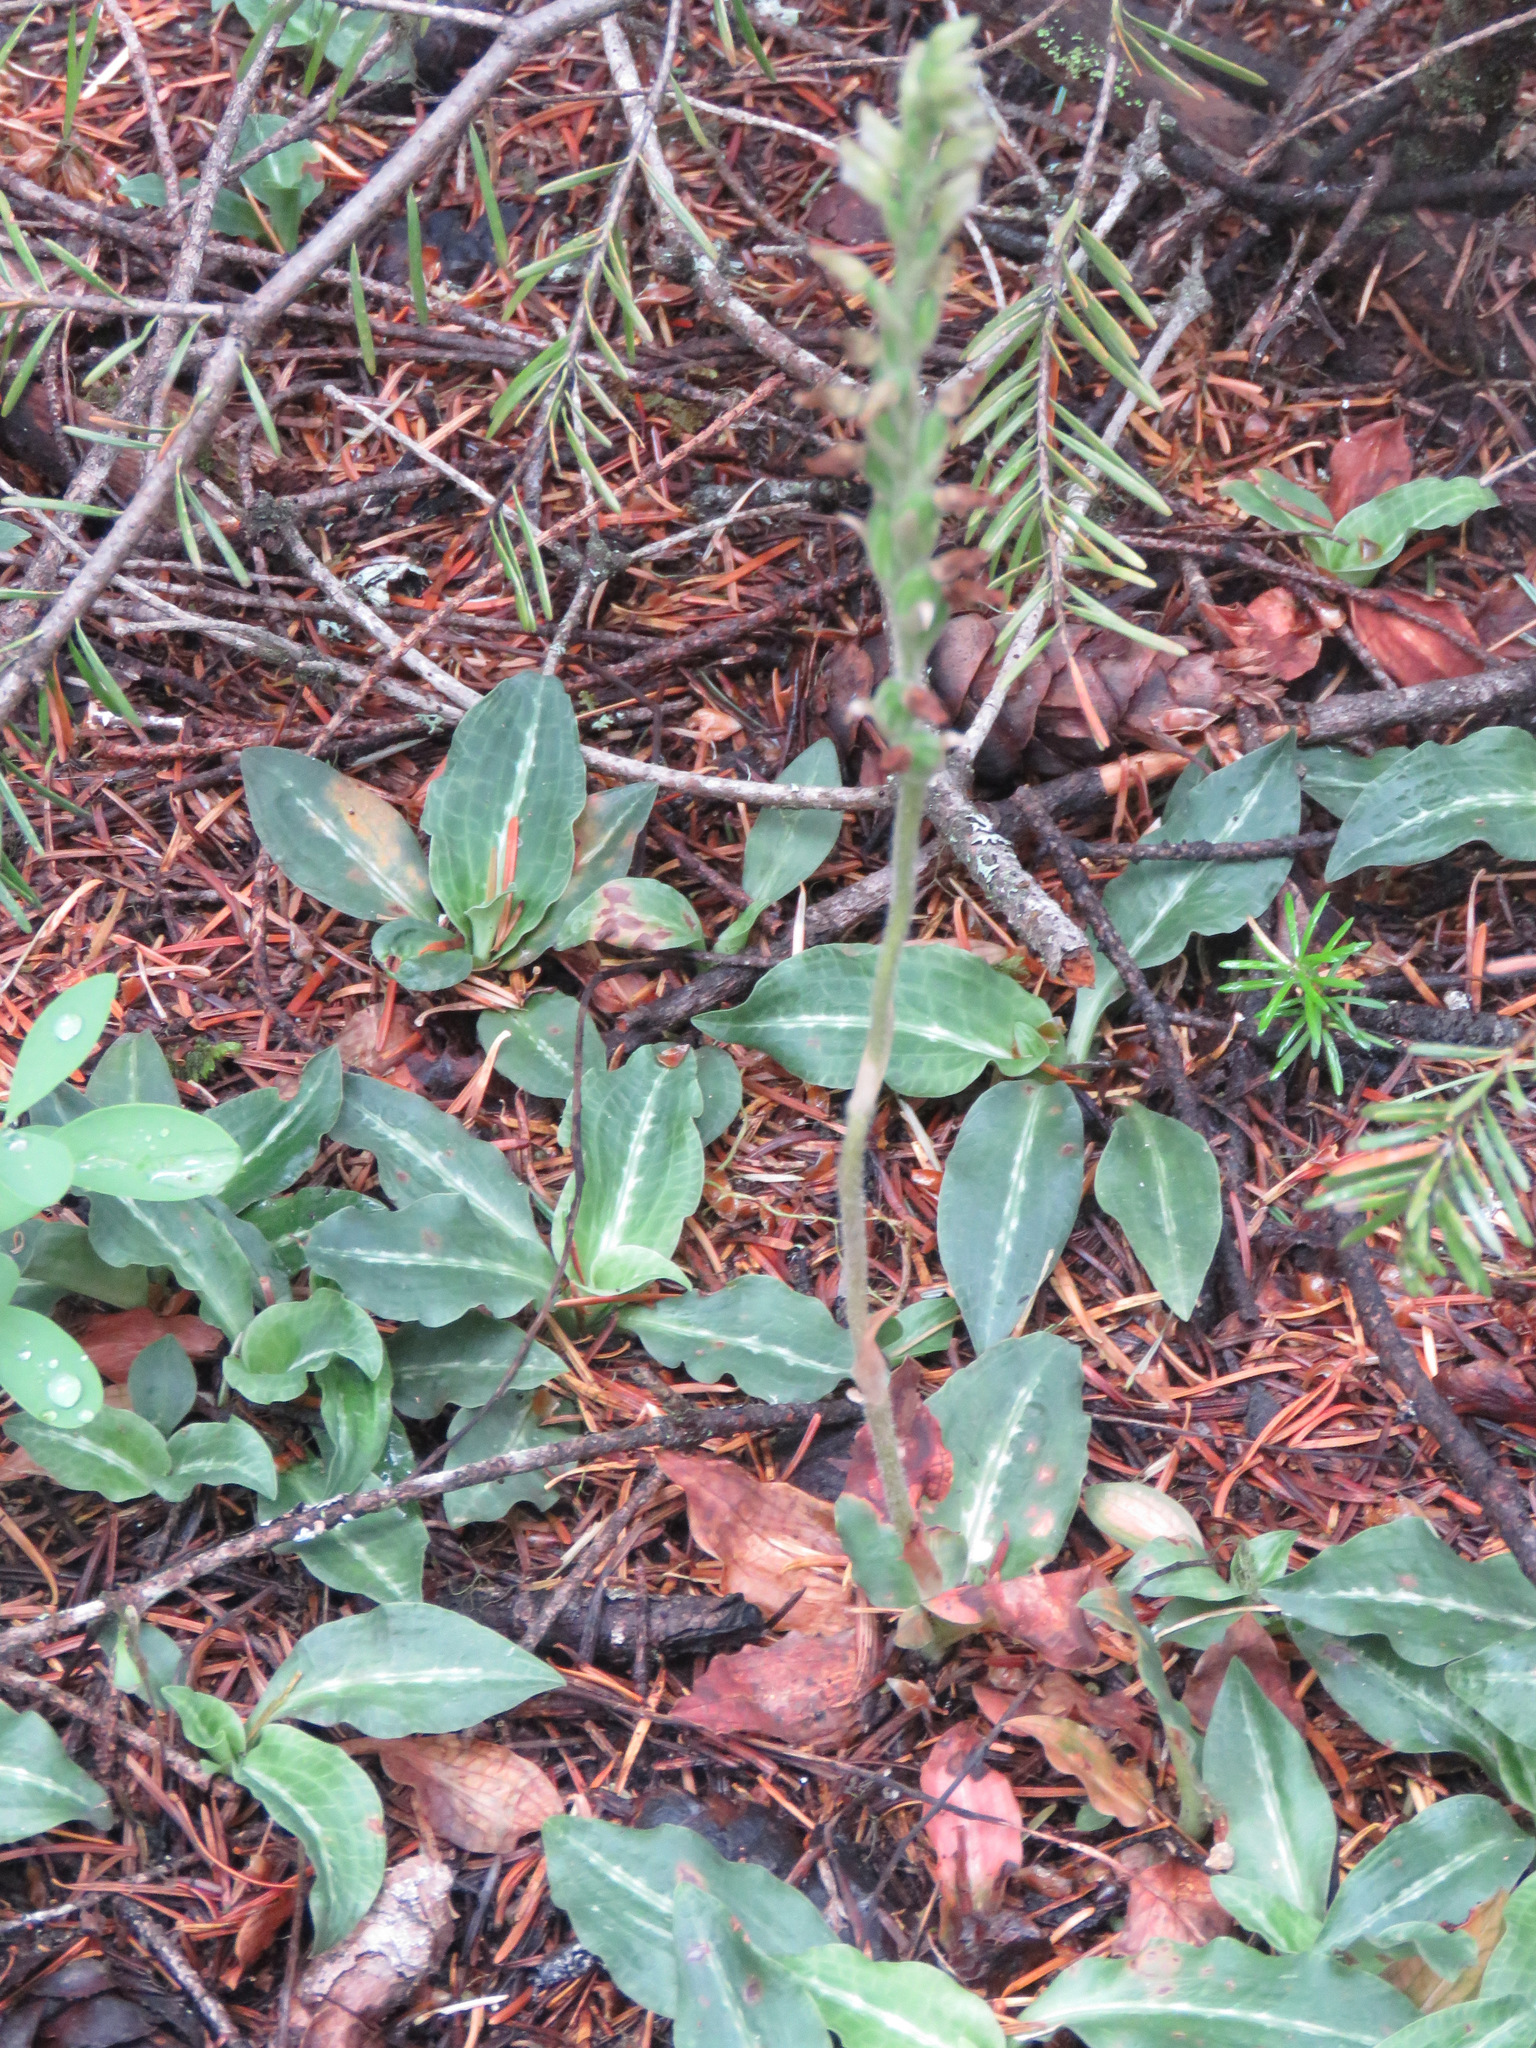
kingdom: Plantae
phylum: Tracheophyta
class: Liliopsida
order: Asparagales
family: Orchidaceae
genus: Goodyera
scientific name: Goodyera oblongifolia
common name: Giant rattlesnake-plantain
